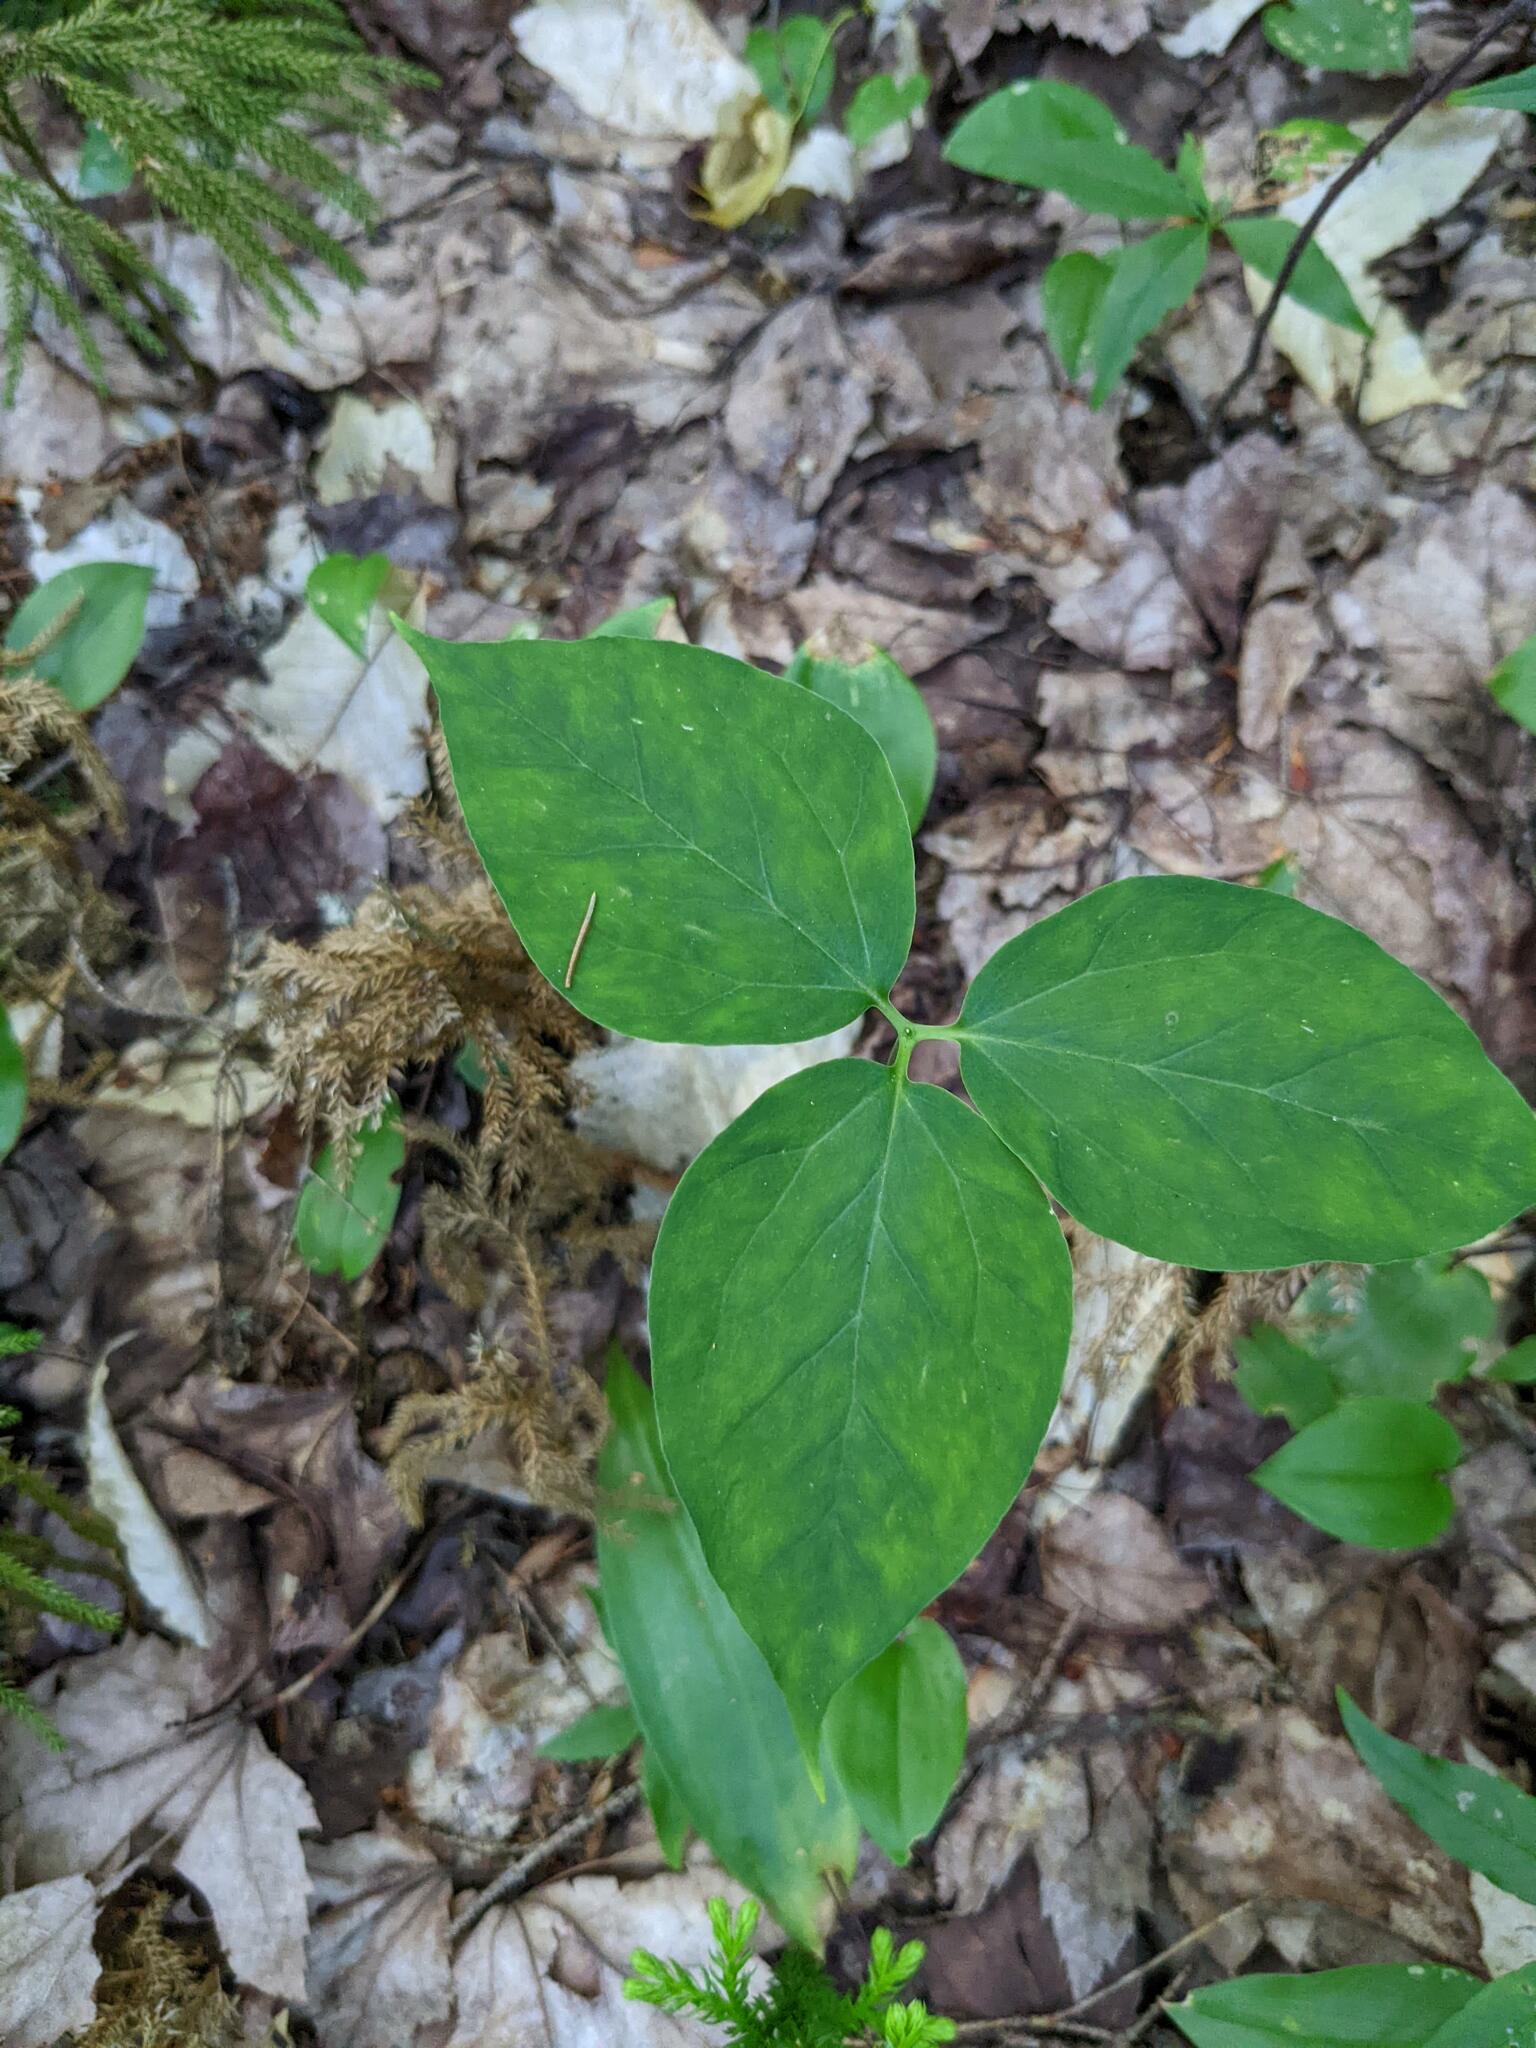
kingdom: Plantae
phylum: Tracheophyta
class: Liliopsida
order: Liliales
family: Melanthiaceae
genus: Trillium
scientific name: Trillium undulatum
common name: Paint trillium
